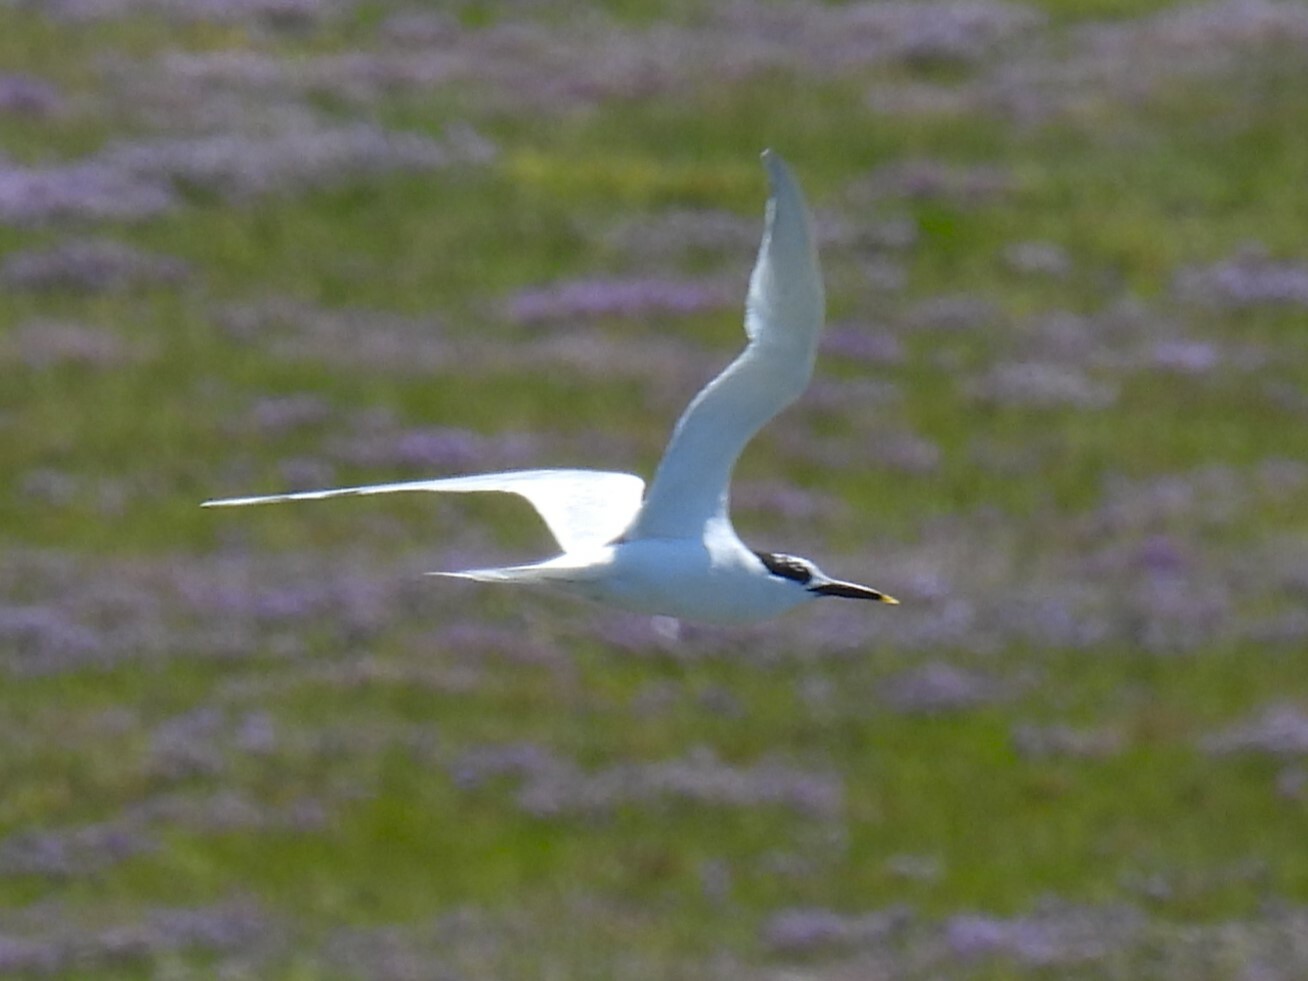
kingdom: Animalia
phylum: Chordata
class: Aves
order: Charadriiformes
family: Laridae
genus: Thalasseus
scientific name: Thalasseus sandvicensis
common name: Sandwich tern
